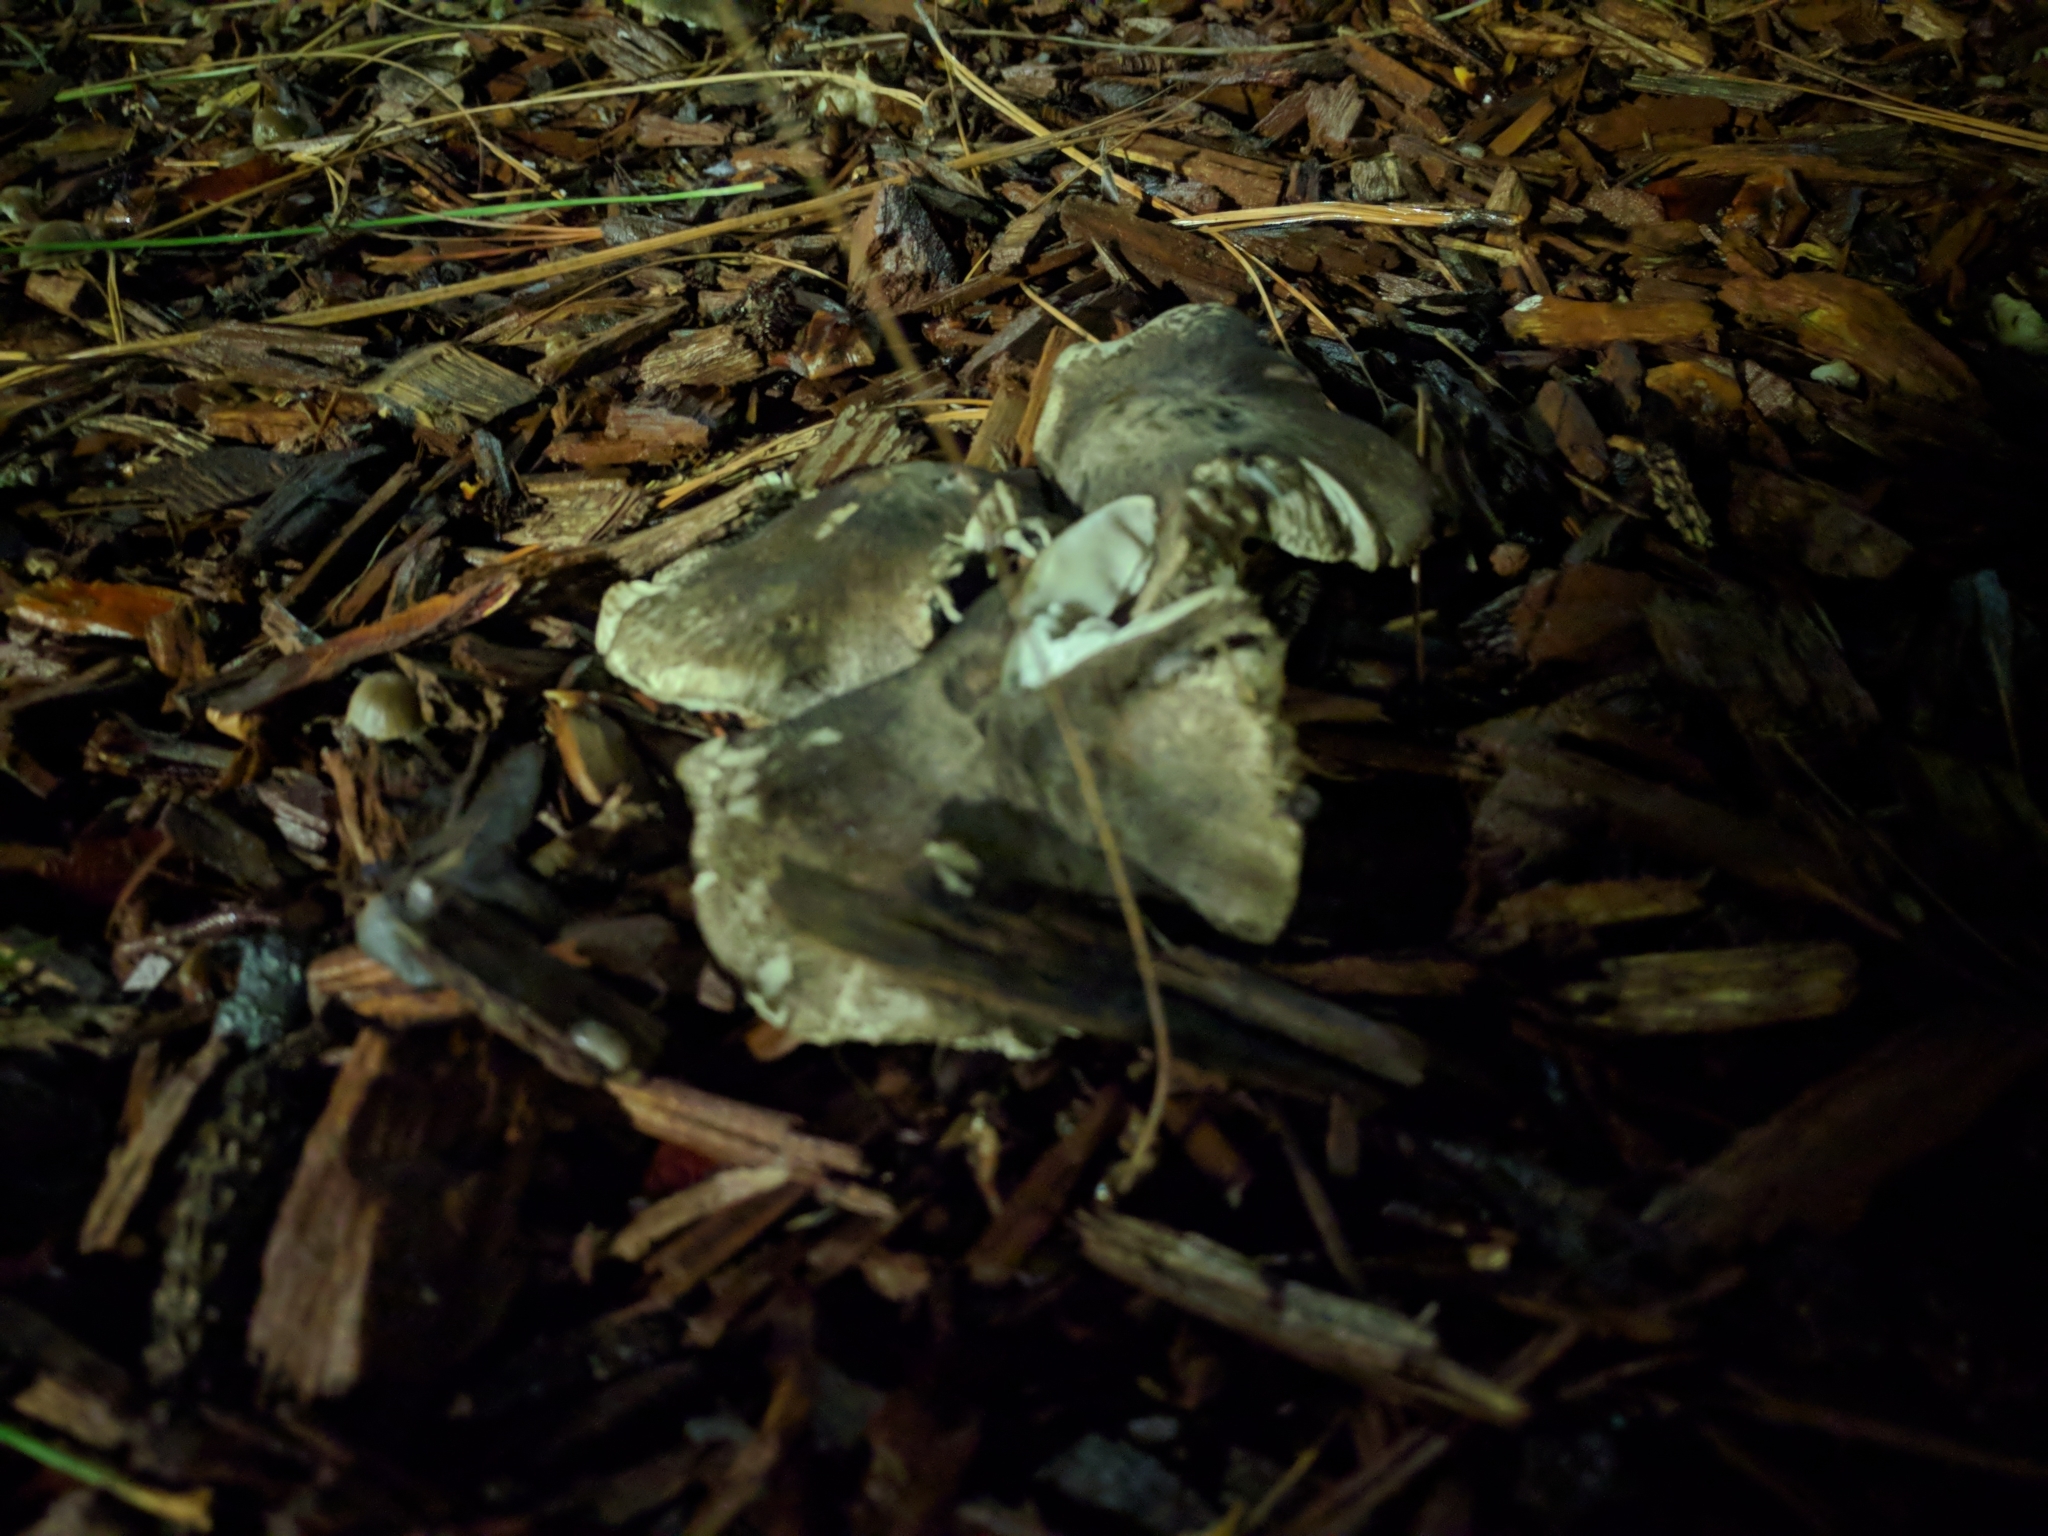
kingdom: Fungi
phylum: Basidiomycota
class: Agaricomycetes
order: Agaricales
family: Tricholomataceae
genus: Tricholoma
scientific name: Tricholoma terreum
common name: Grey knight
